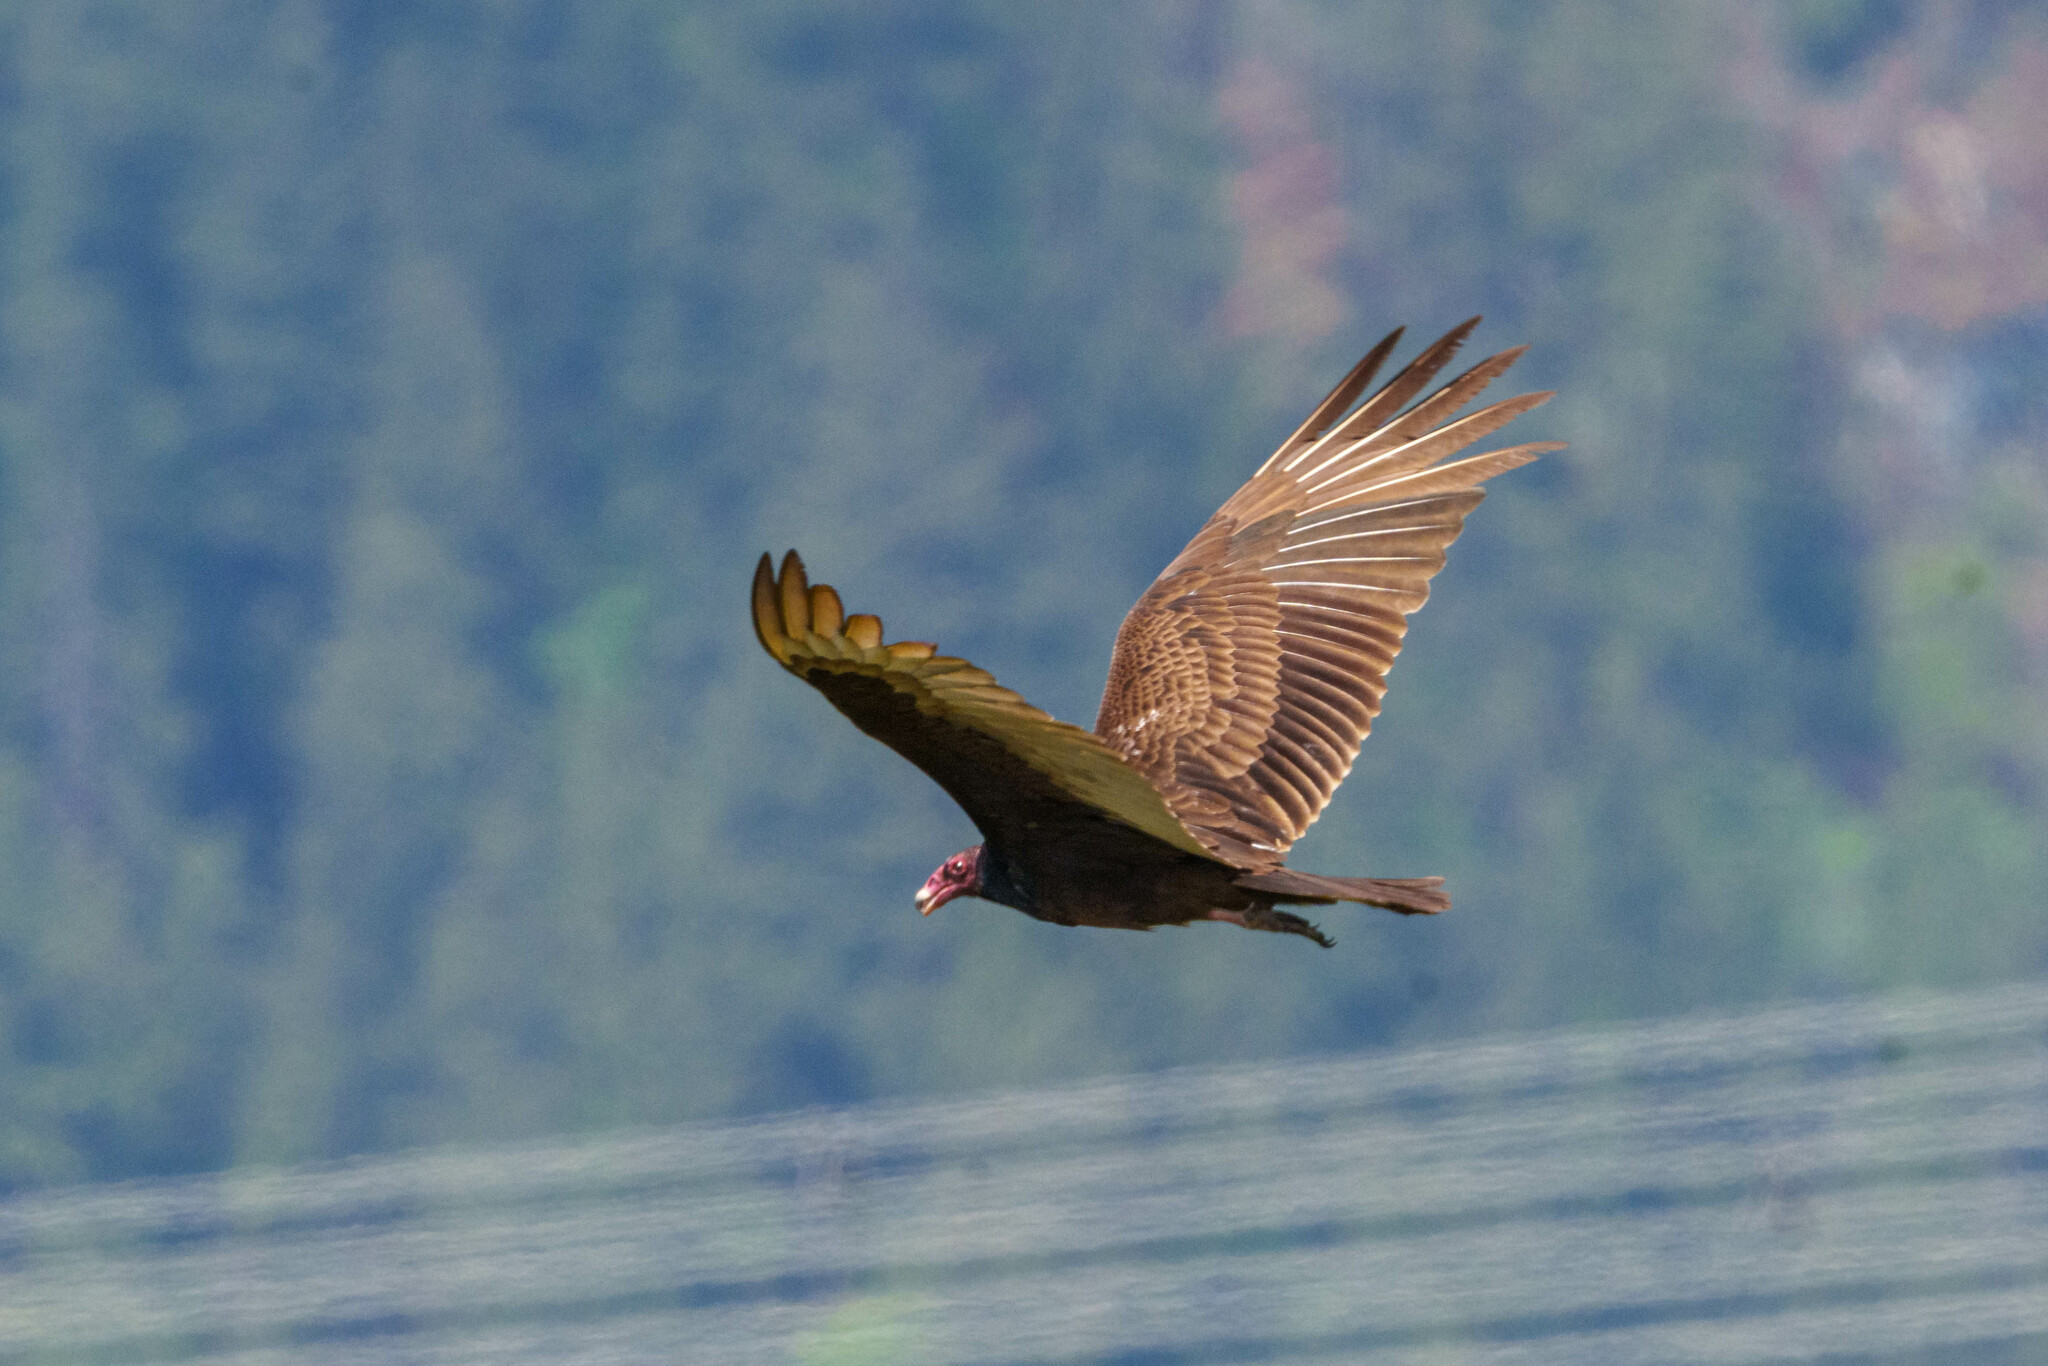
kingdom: Animalia
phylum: Chordata
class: Aves
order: Accipitriformes
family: Cathartidae
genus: Cathartes
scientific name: Cathartes aura
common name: Turkey vulture
